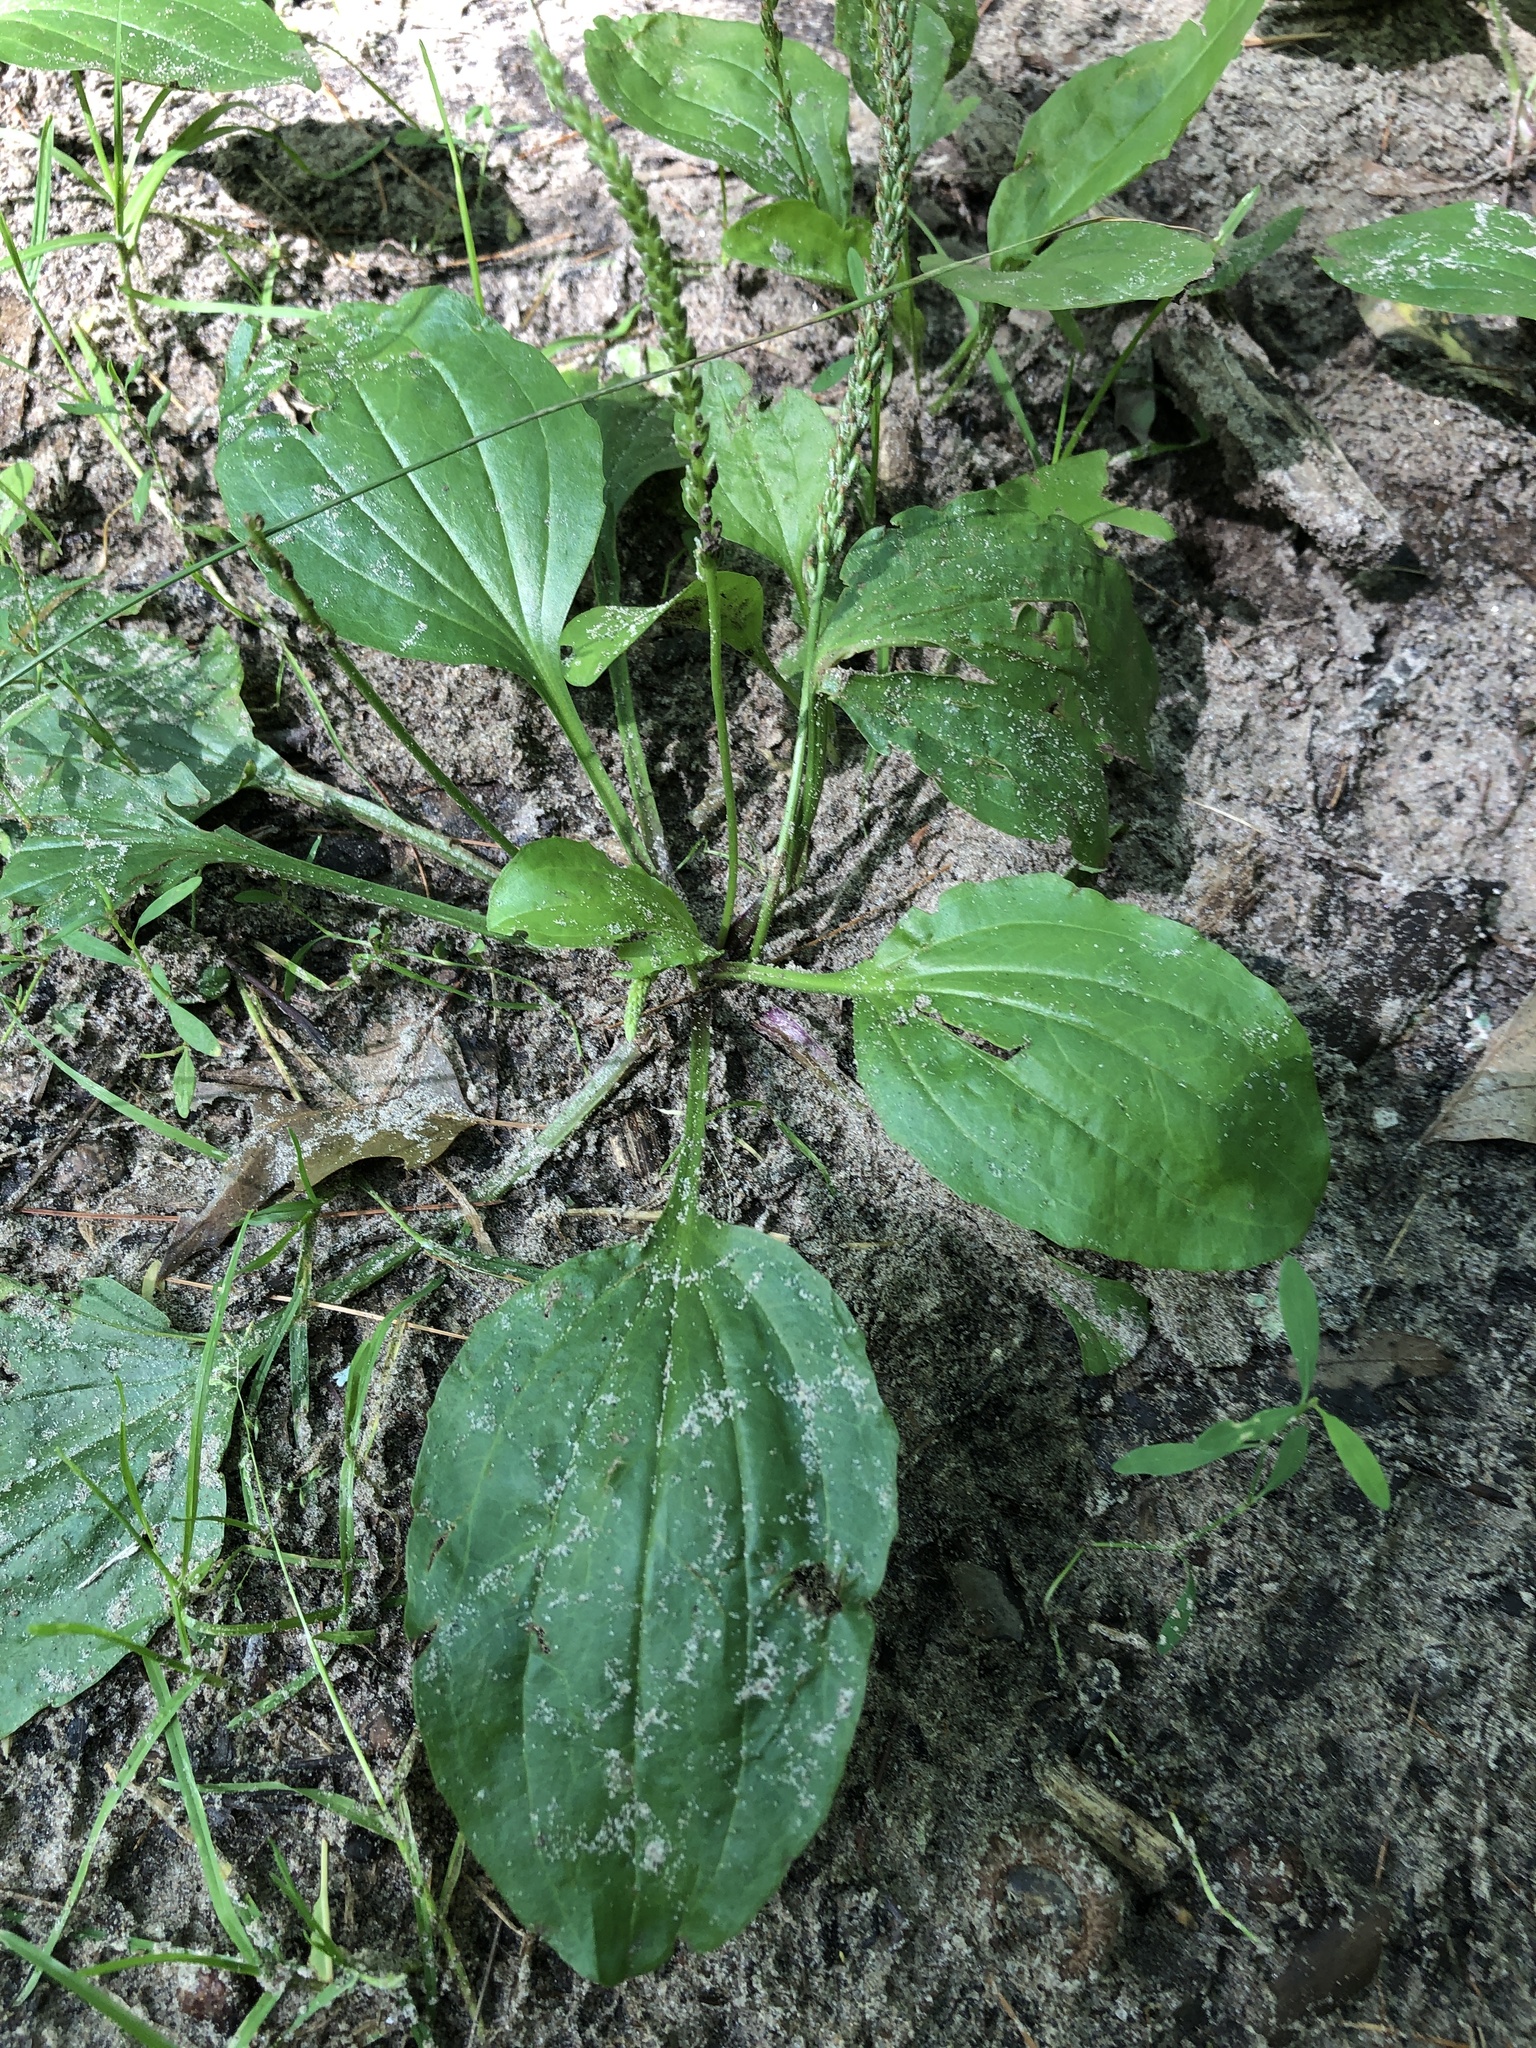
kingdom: Plantae
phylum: Tracheophyta
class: Magnoliopsida
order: Lamiales
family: Plantaginaceae
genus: Plantago
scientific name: Plantago major
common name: Common plantain
